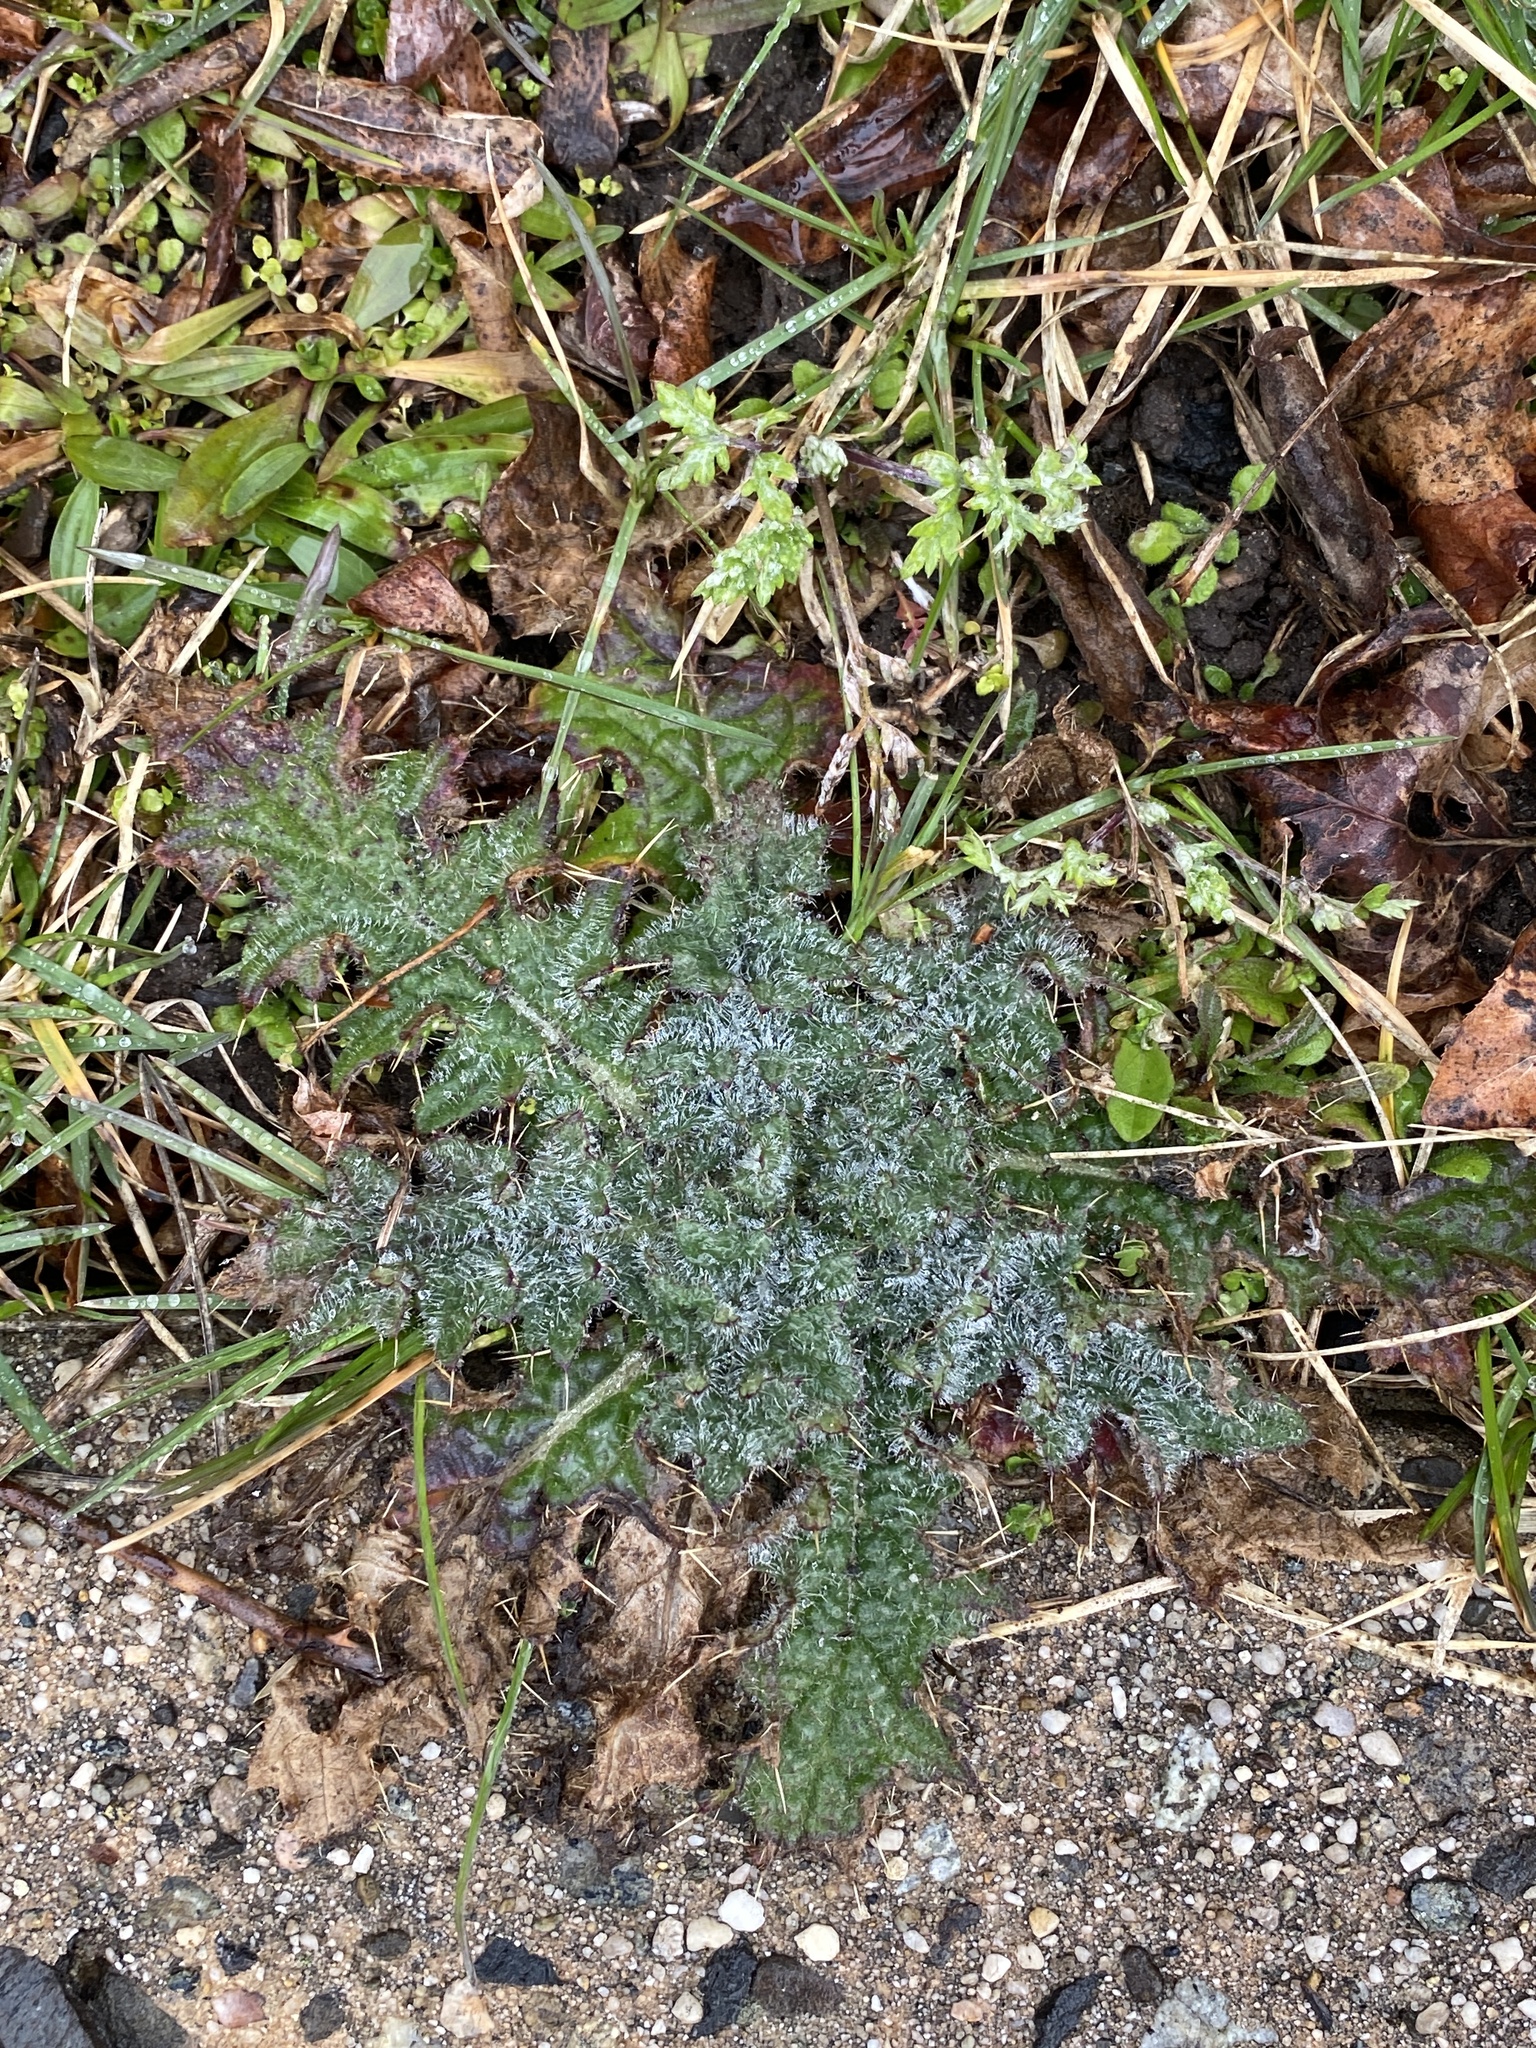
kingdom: Plantae
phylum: Tracheophyta
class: Magnoliopsida
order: Asterales
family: Asteraceae
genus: Cirsium
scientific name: Cirsium vulgare
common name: Bull thistle
